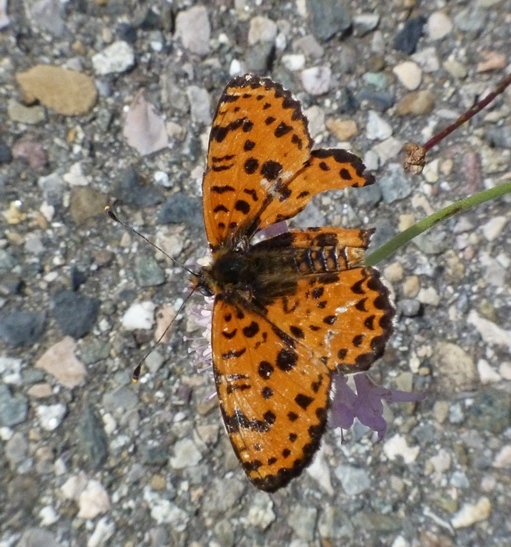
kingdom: Animalia
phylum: Arthropoda
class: Insecta
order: Lepidoptera
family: Nymphalidae
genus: Melitaea
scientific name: Melitaea didyma
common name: Spotted fritillary
